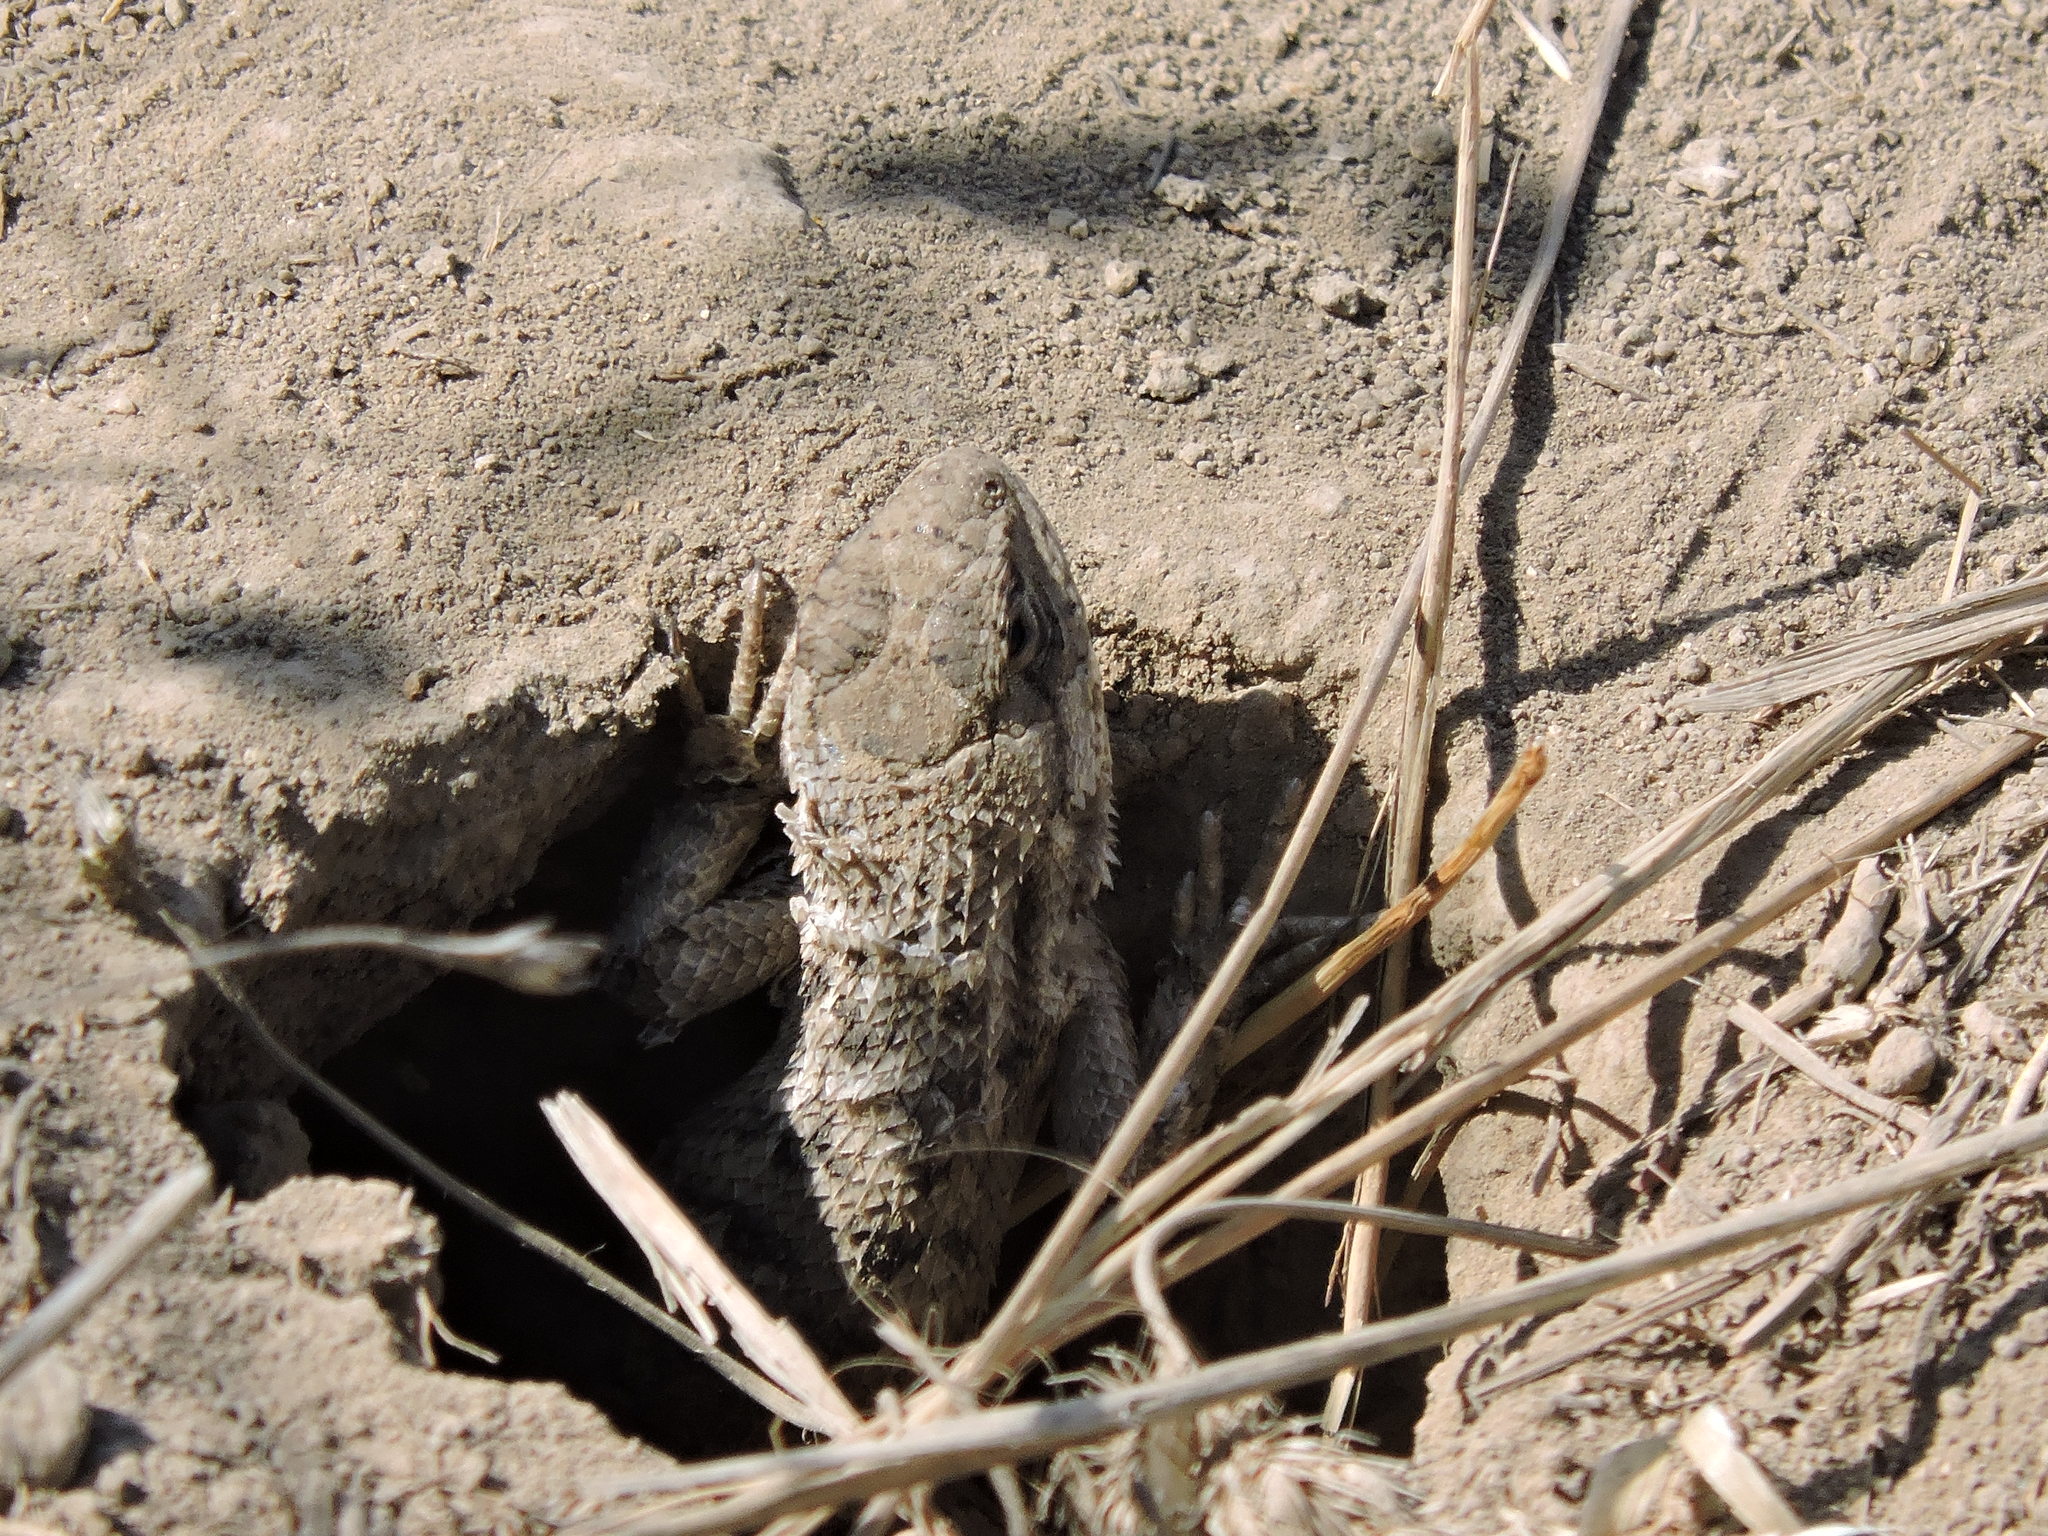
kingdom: Animalia
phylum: Chordata
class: Squamata
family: Phrynosomatidae
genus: Sceloporus
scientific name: Sceloporus occidentalis
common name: Western fence lizard
